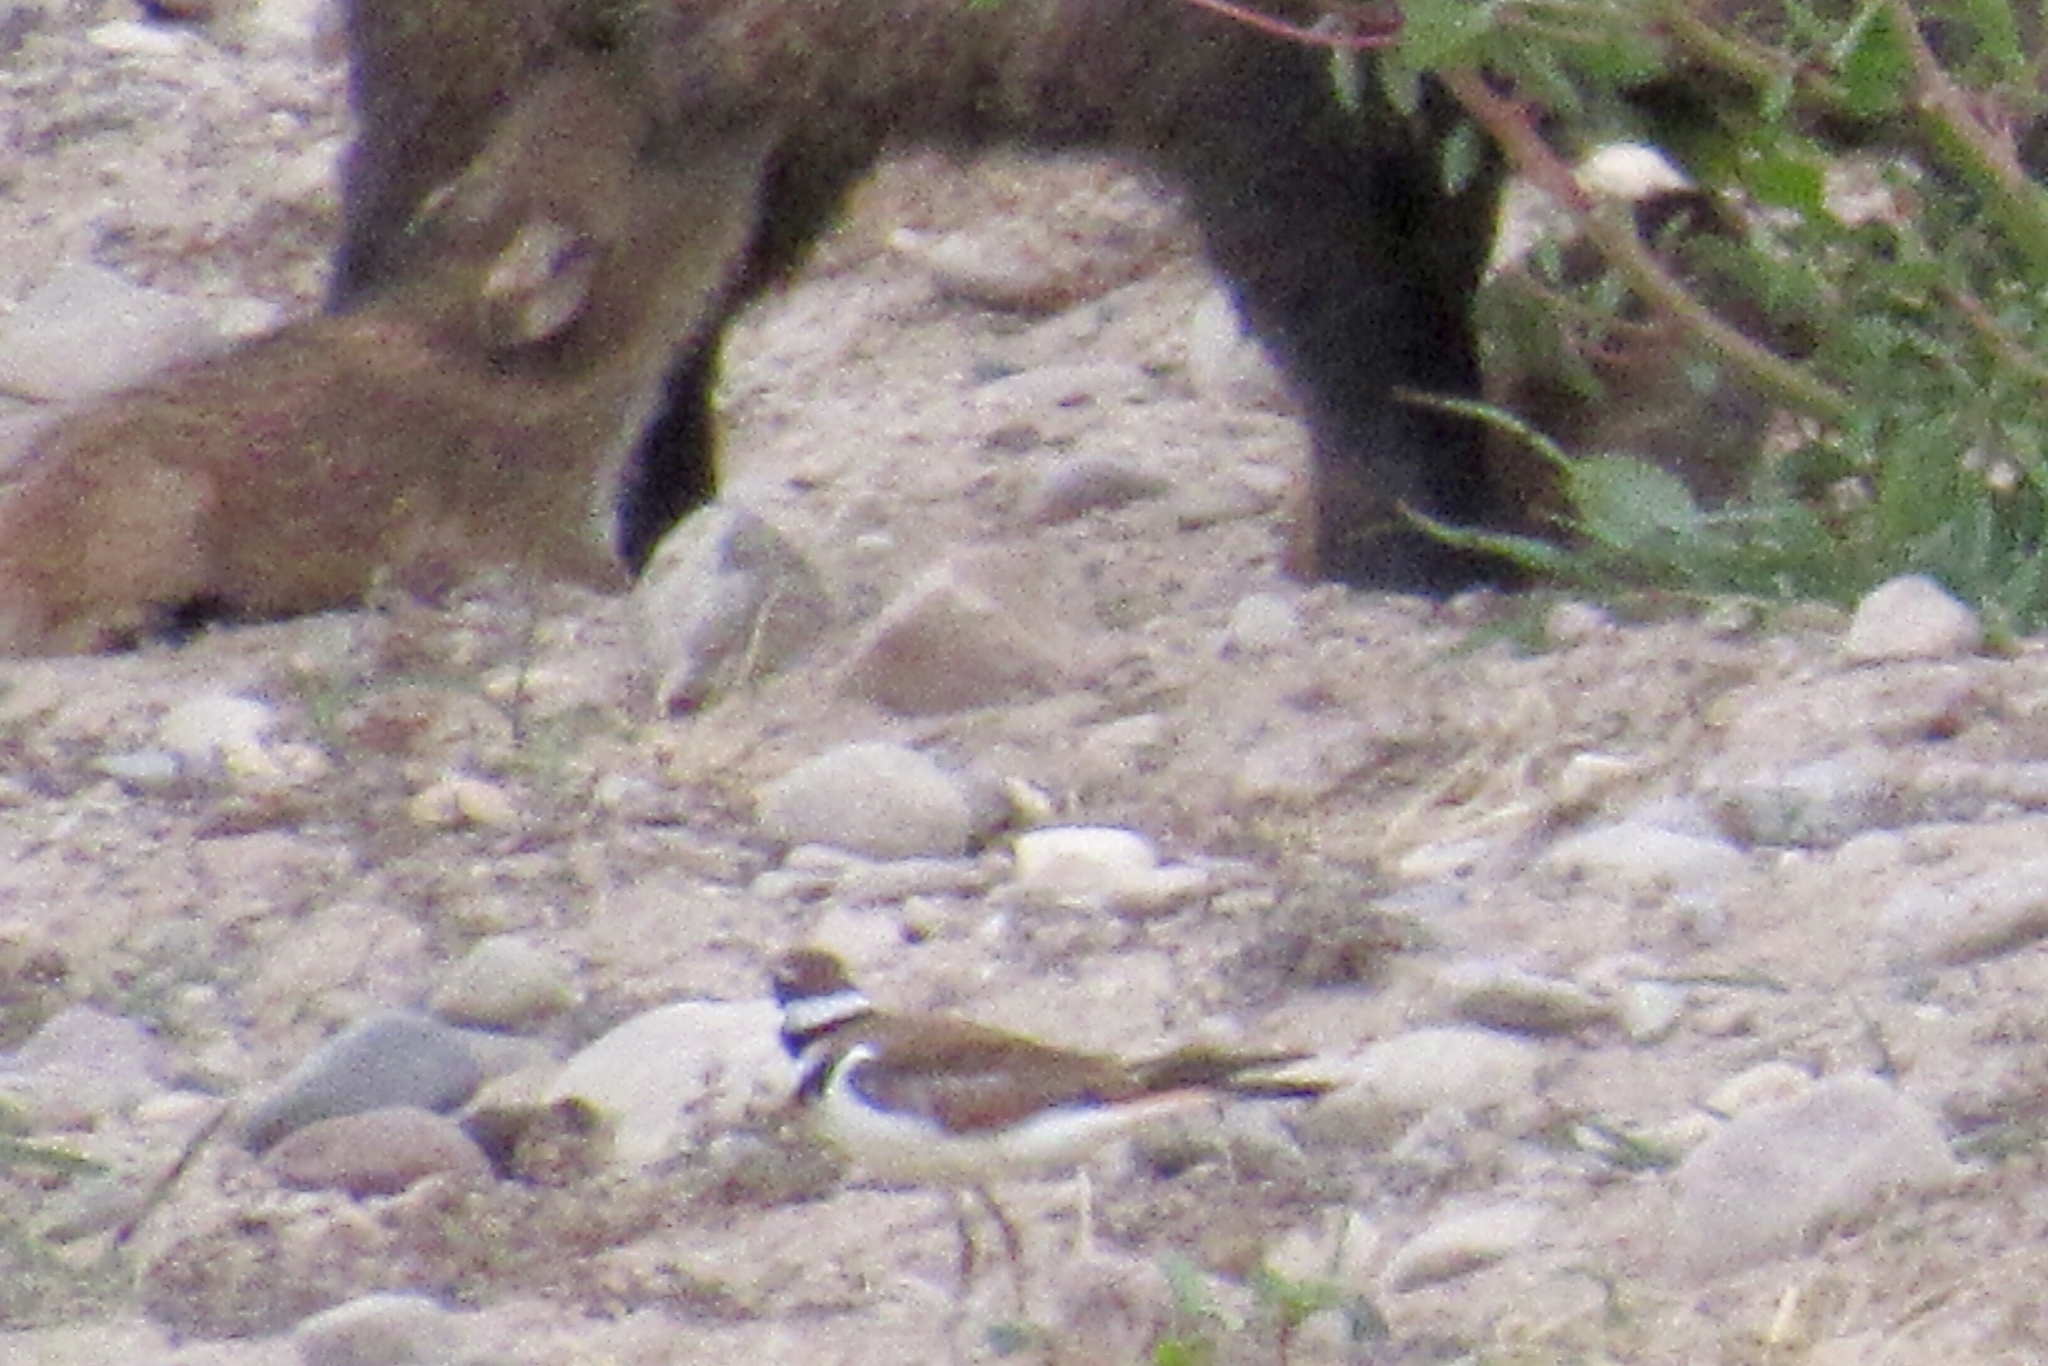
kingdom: Animalia
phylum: Chordata
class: Aves
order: Charadriiformes
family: Charadriidae
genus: Charadrius
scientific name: Charadrius vociferus
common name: Killdeer
